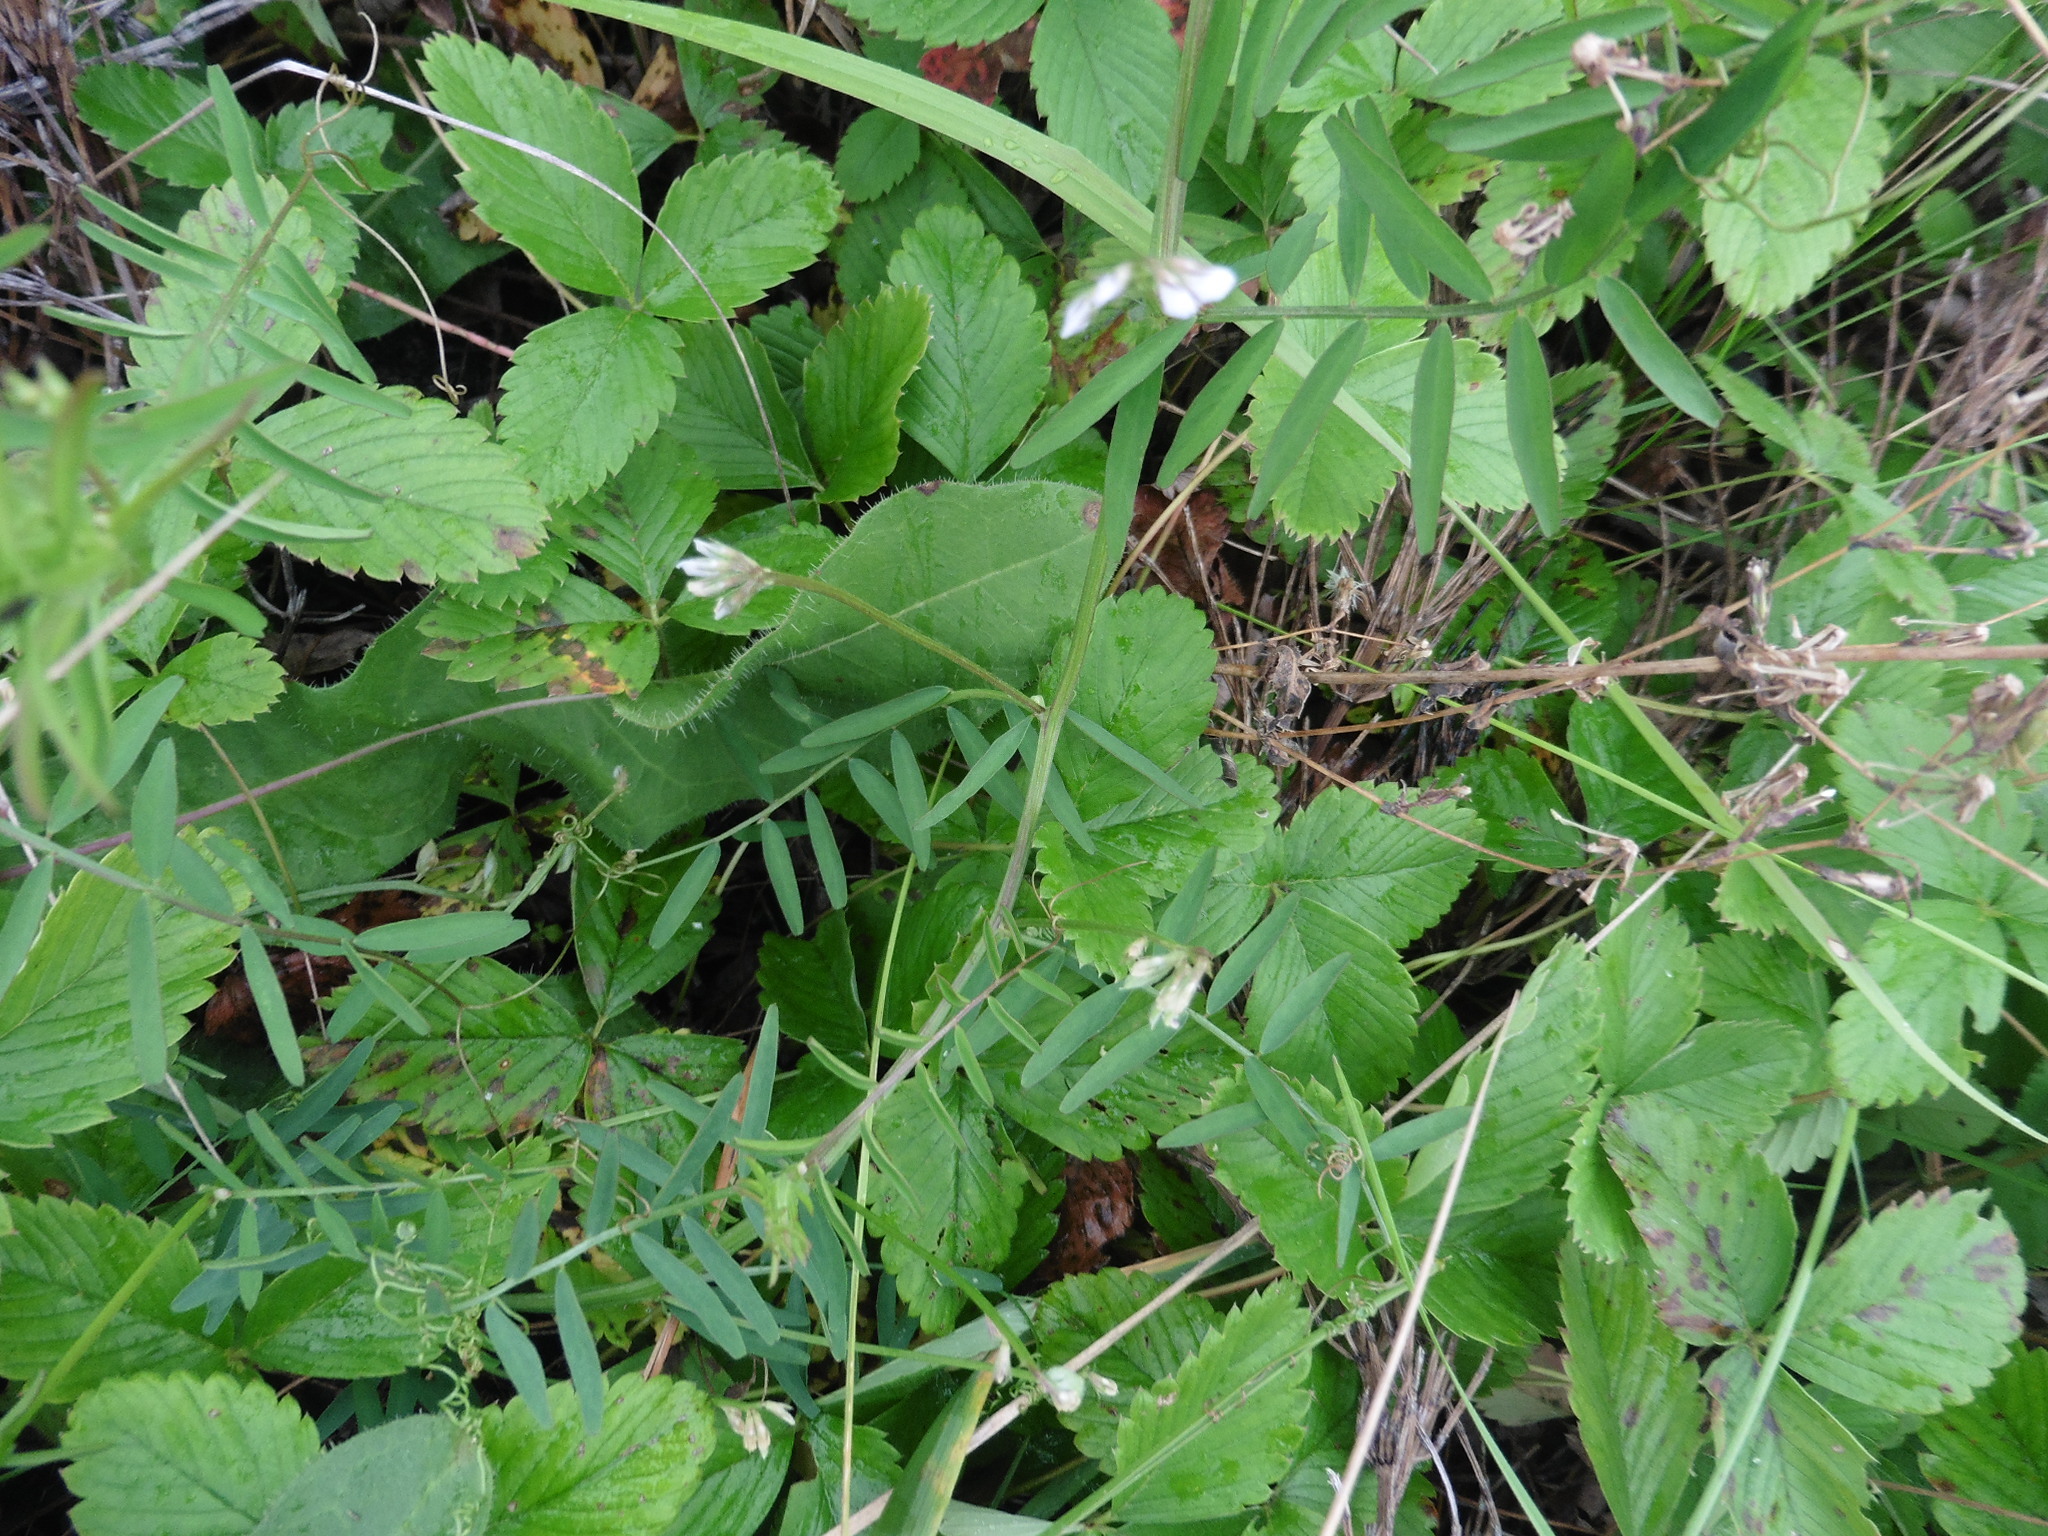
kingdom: Plantae
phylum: Tracheophyta
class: Magnoliopsida
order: Rosales
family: Rosaceae
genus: Fragaria
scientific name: Fragaria viridis
